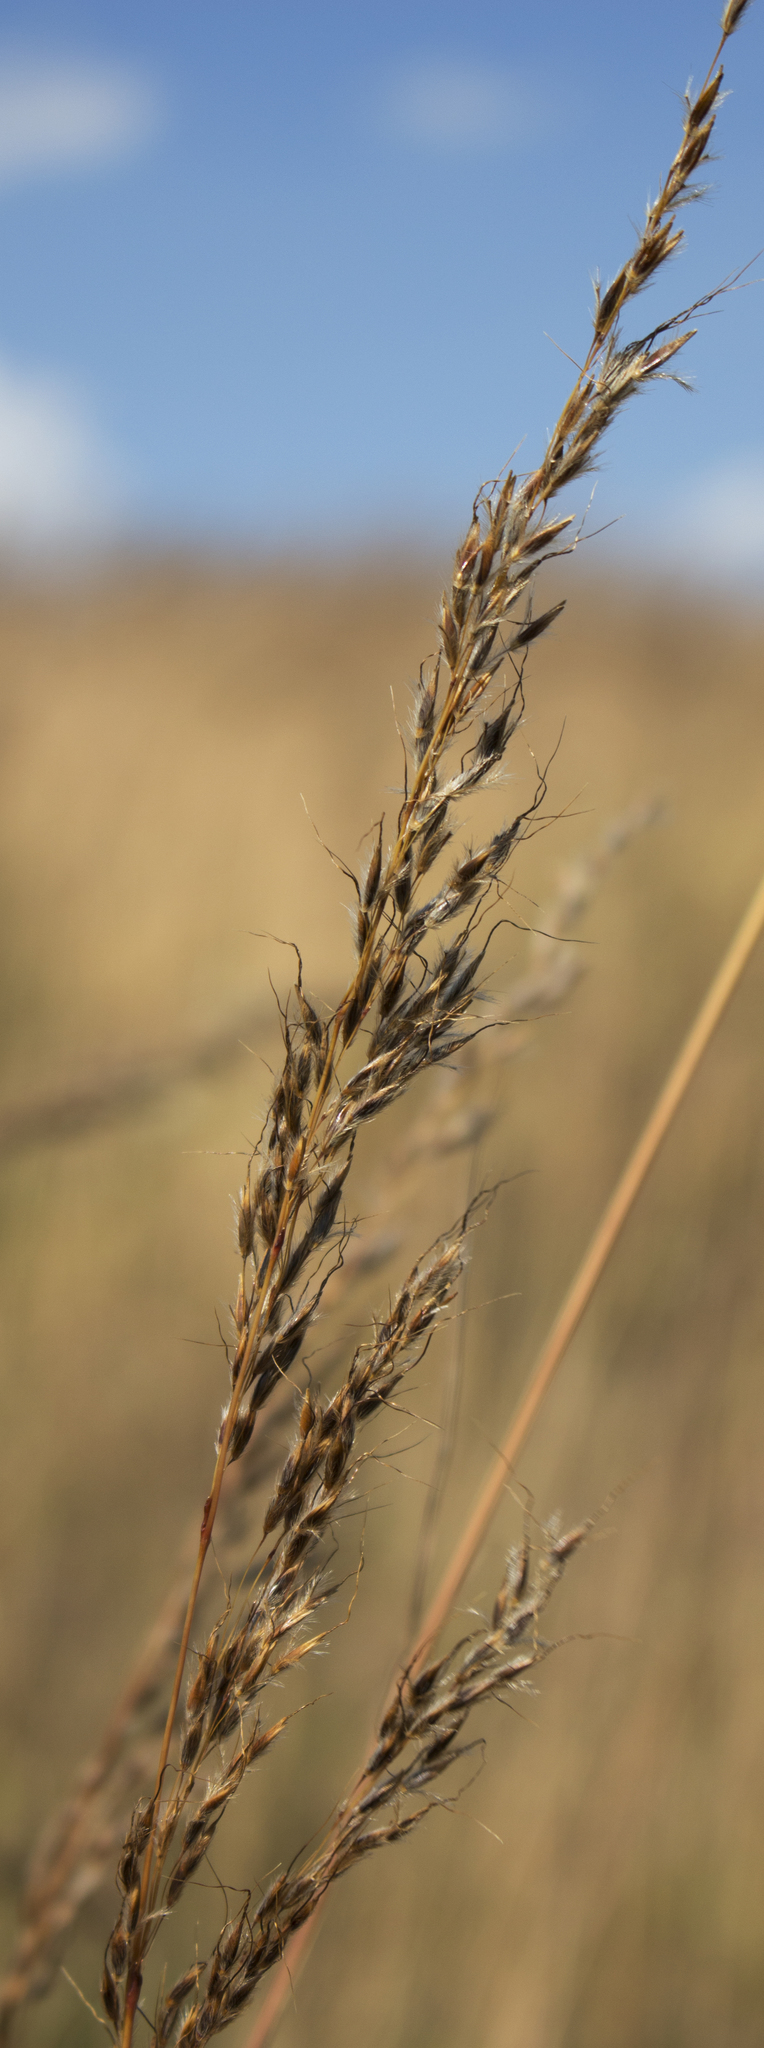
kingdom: Plantae
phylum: Tracheophyta
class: Liliopsida
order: Poales
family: Poaceae
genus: Sorghastrum
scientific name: Sorghastrum nutans
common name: Indian grass
